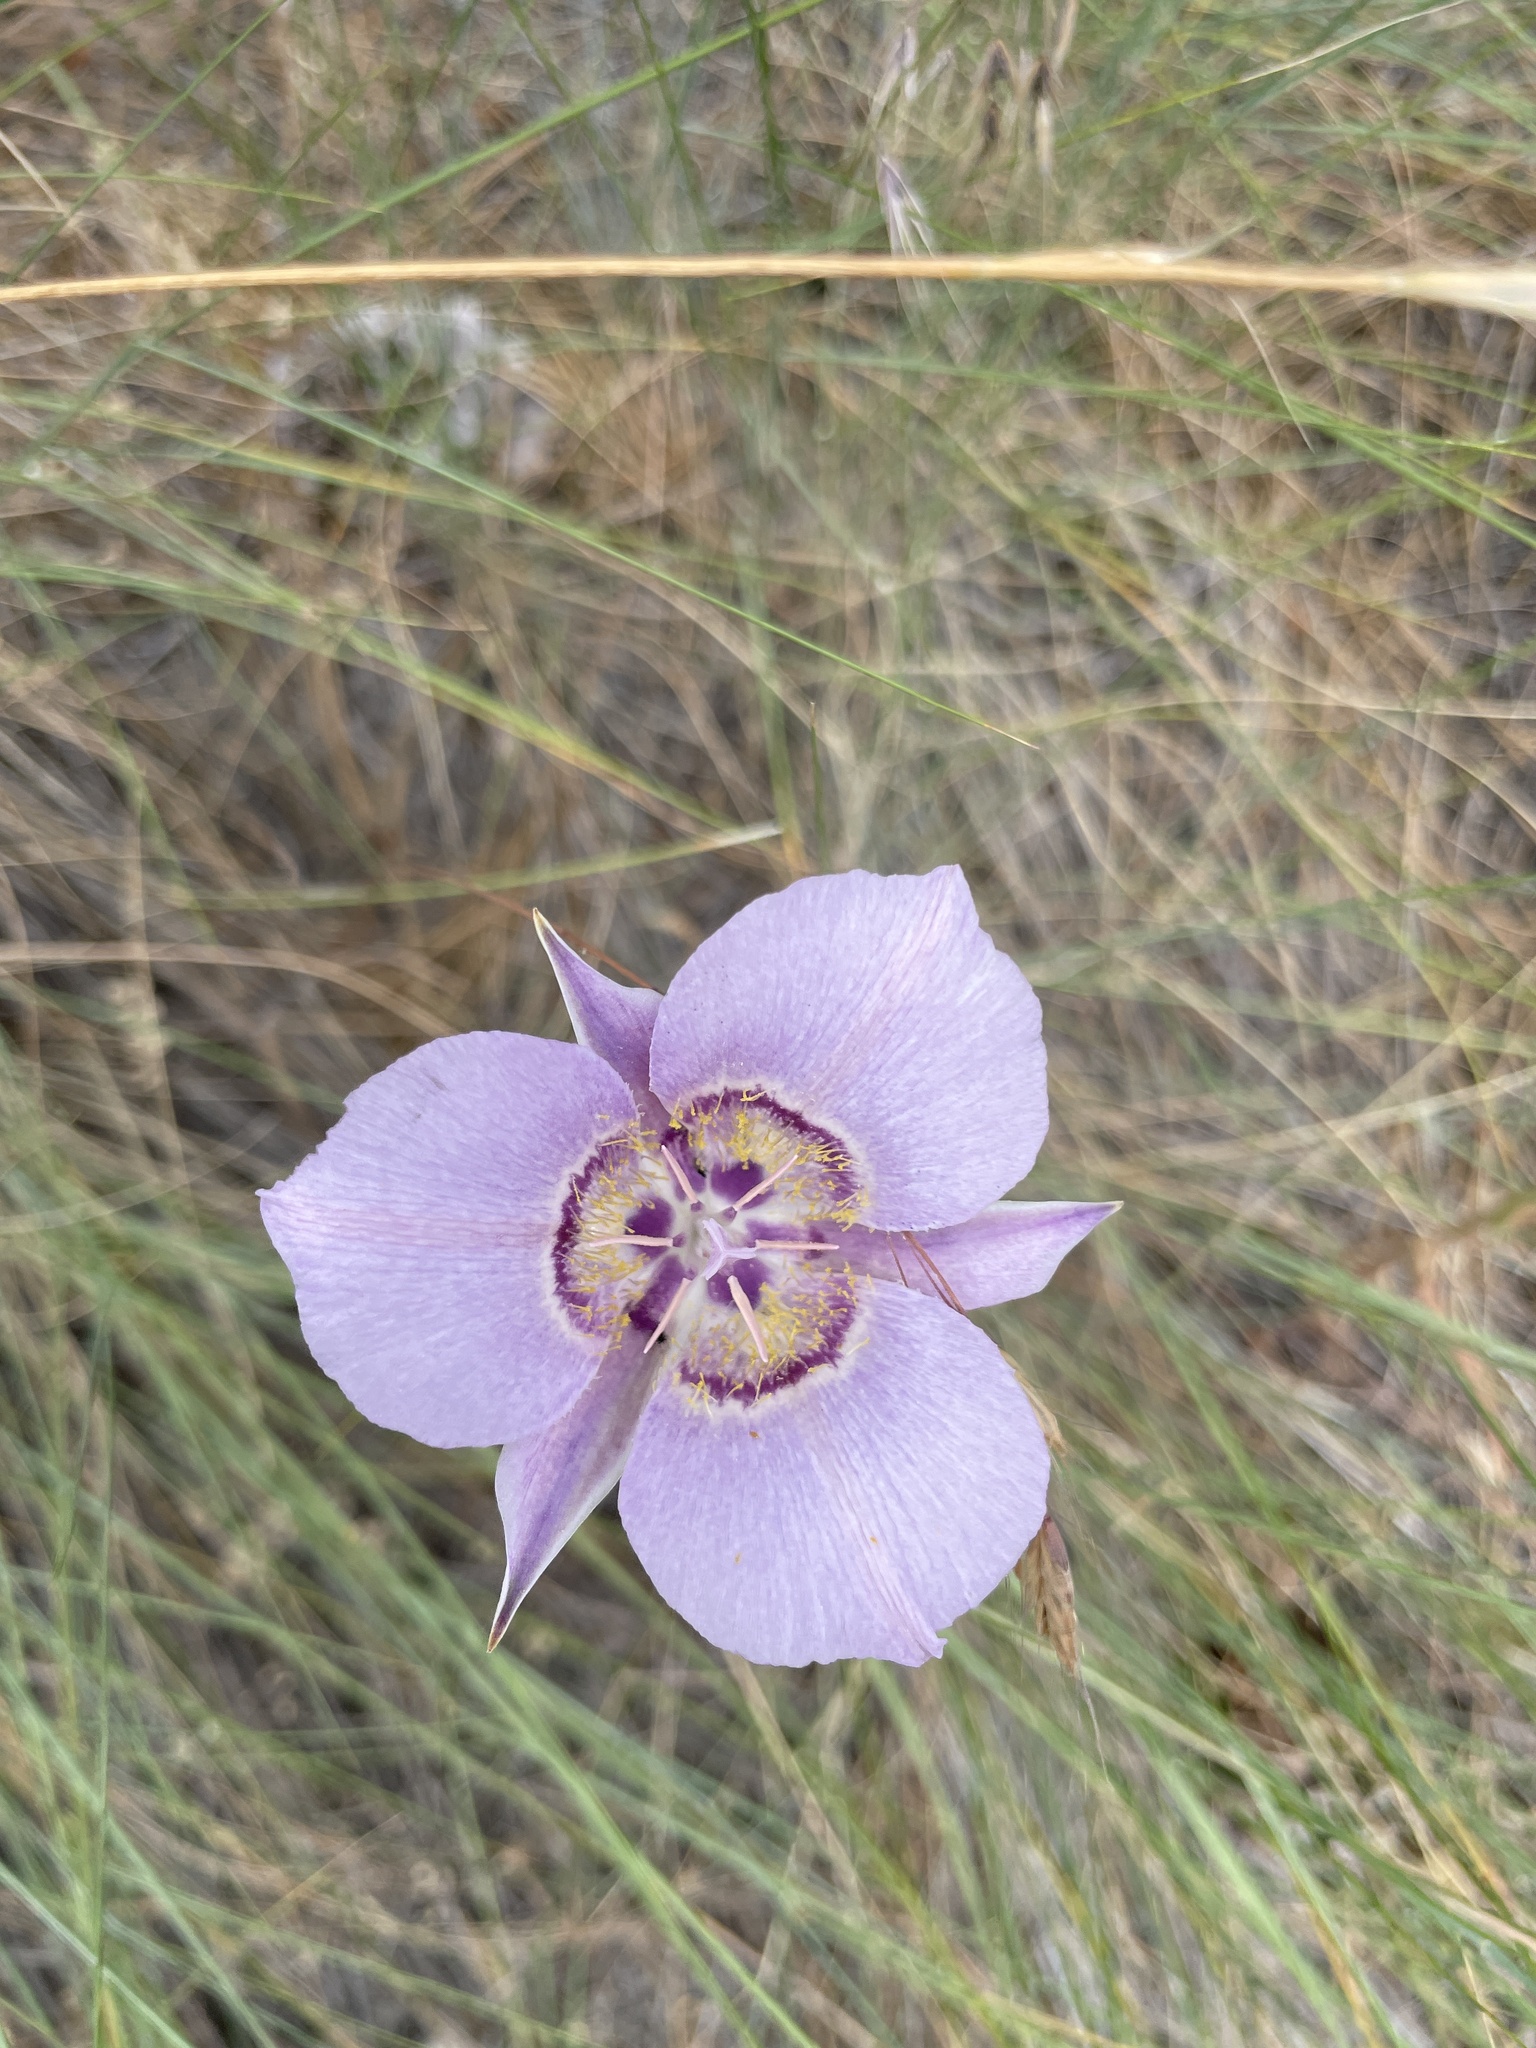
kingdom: Plantae
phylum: Tracheophyta
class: Liliopsida
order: Liliales
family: Liliaceae
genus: Calochortus
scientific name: Calochortus macrocarpus
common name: Green-band mariposa lily
